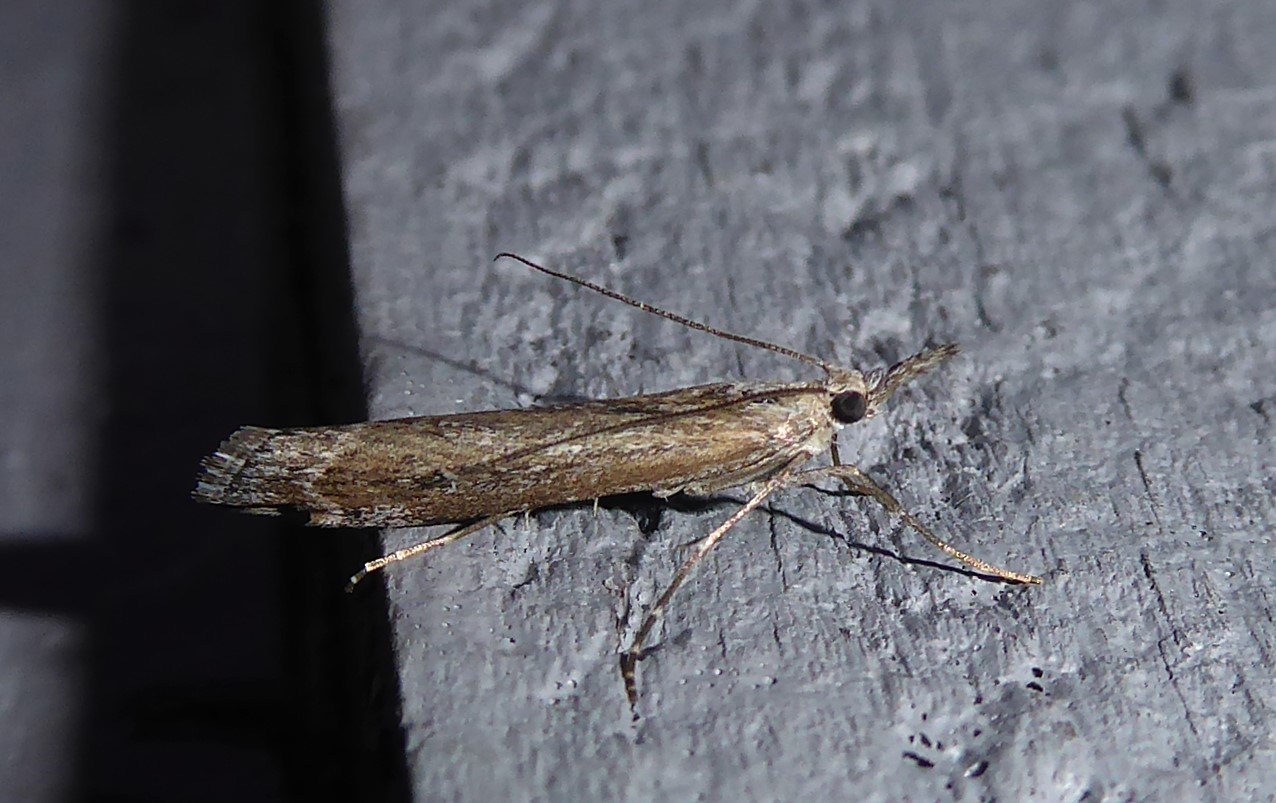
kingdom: Animalia
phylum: Arthropoda
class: Insecta
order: Lepidoptera
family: Crambidae
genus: Orocrambus
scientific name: Orocrambus cyclopicus
